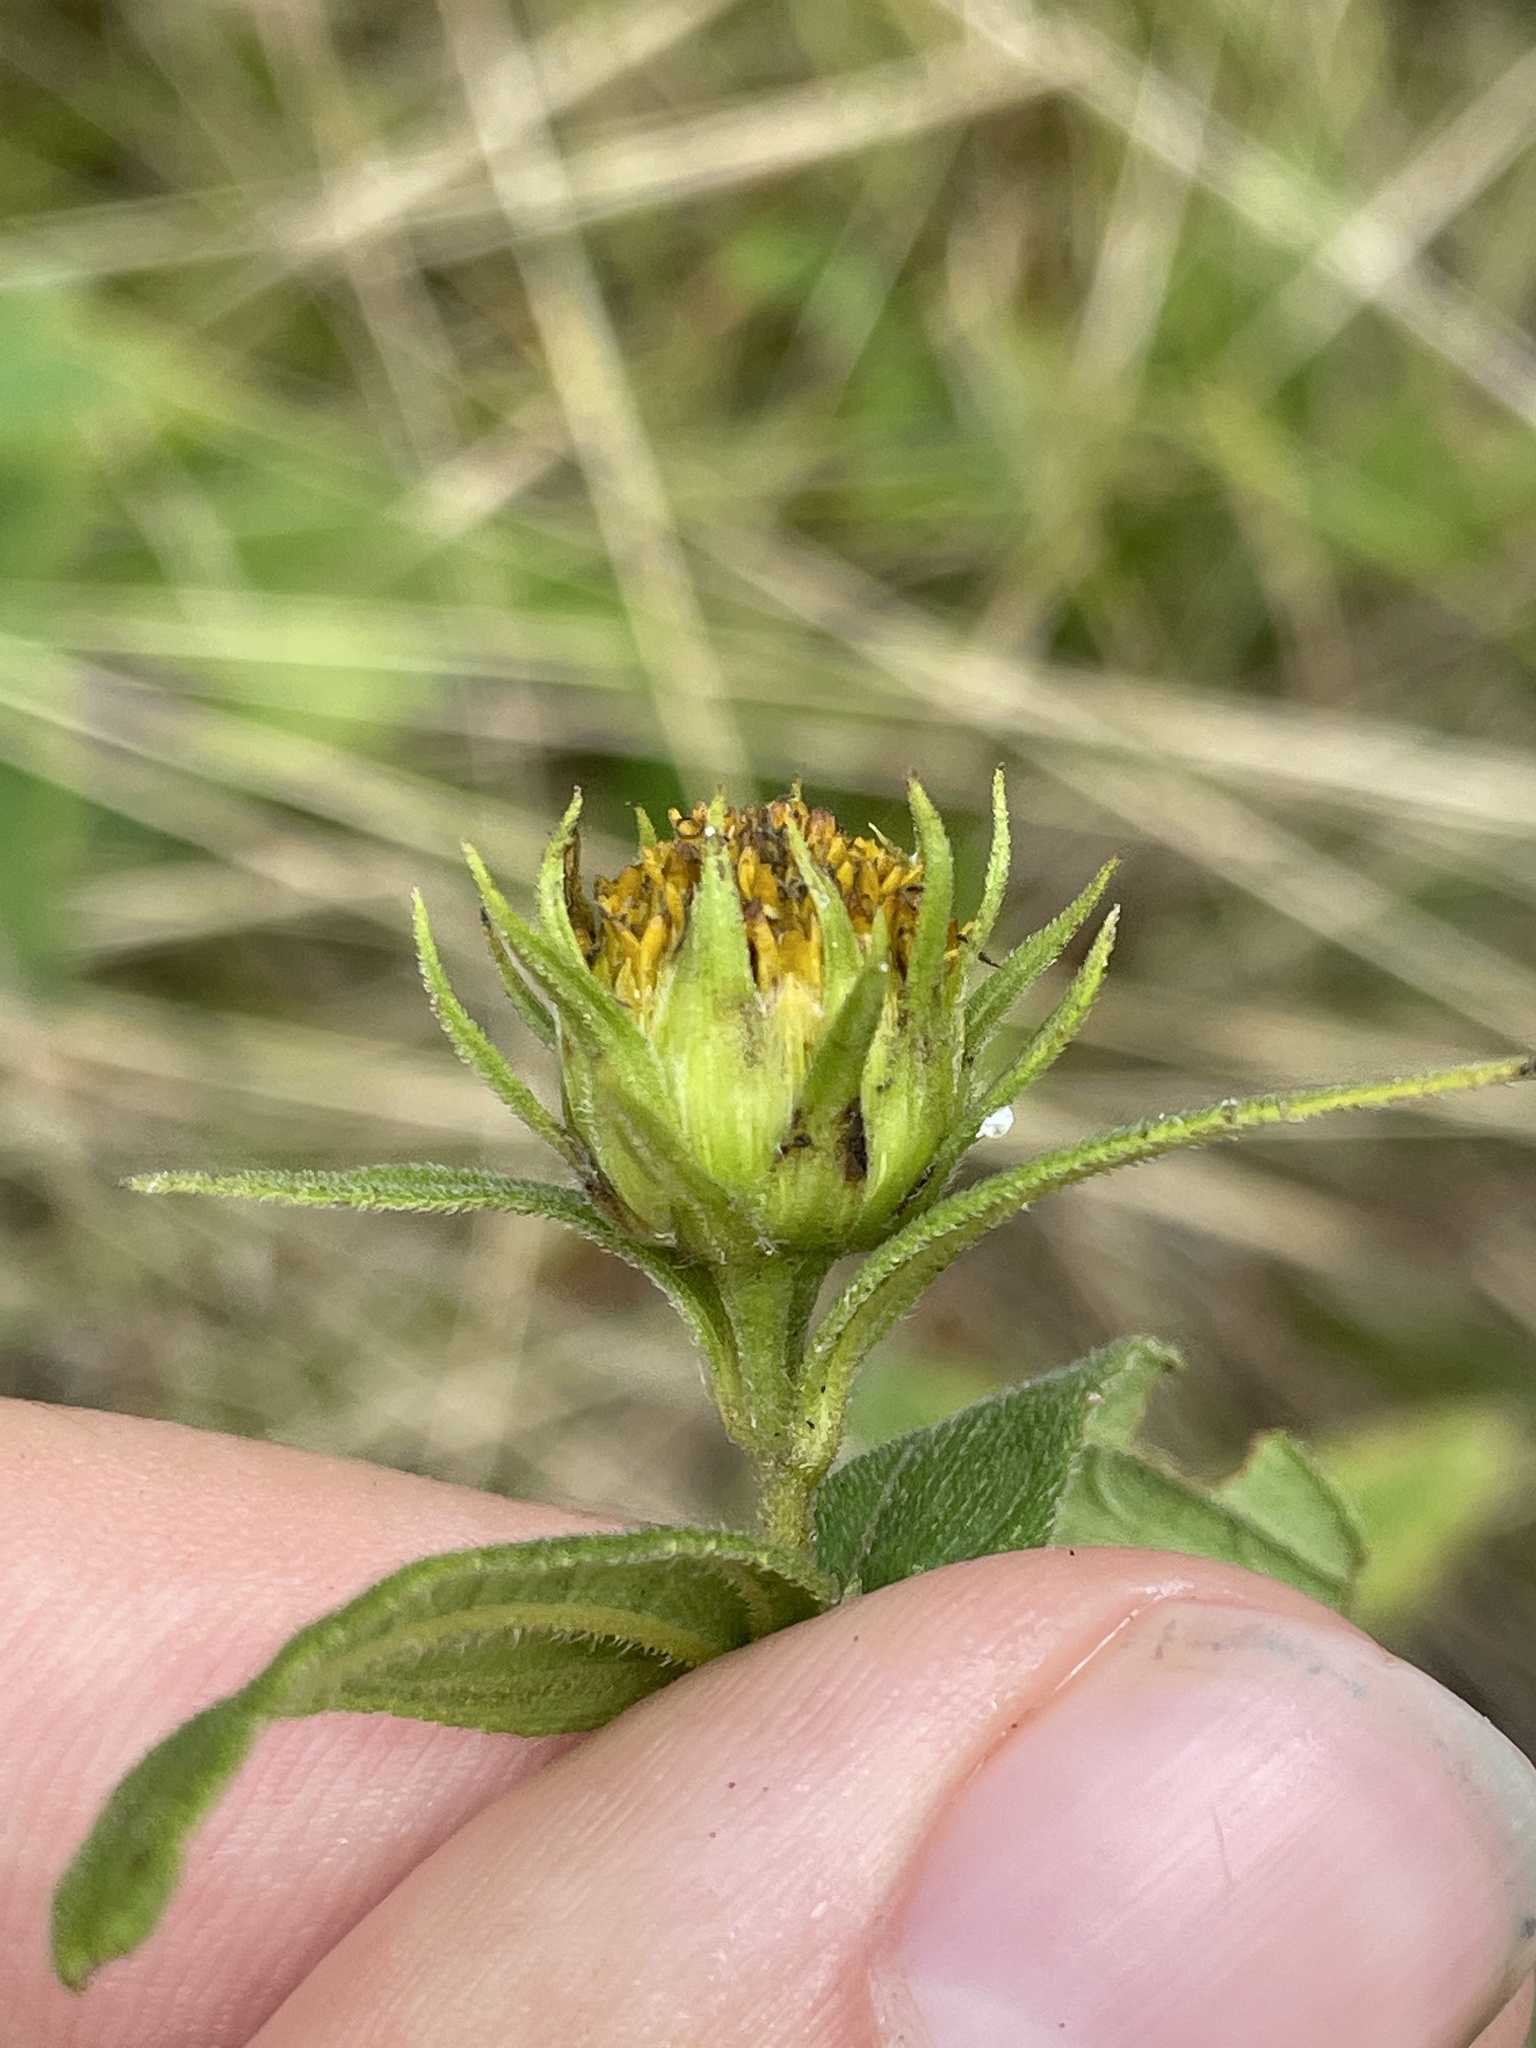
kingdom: Plantae
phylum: Tracheophyta
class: Magnoliopsida
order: Asterales
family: Asteraceae
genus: Helianthus
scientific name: Helianthus hirsutus
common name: Hairy sunflower
